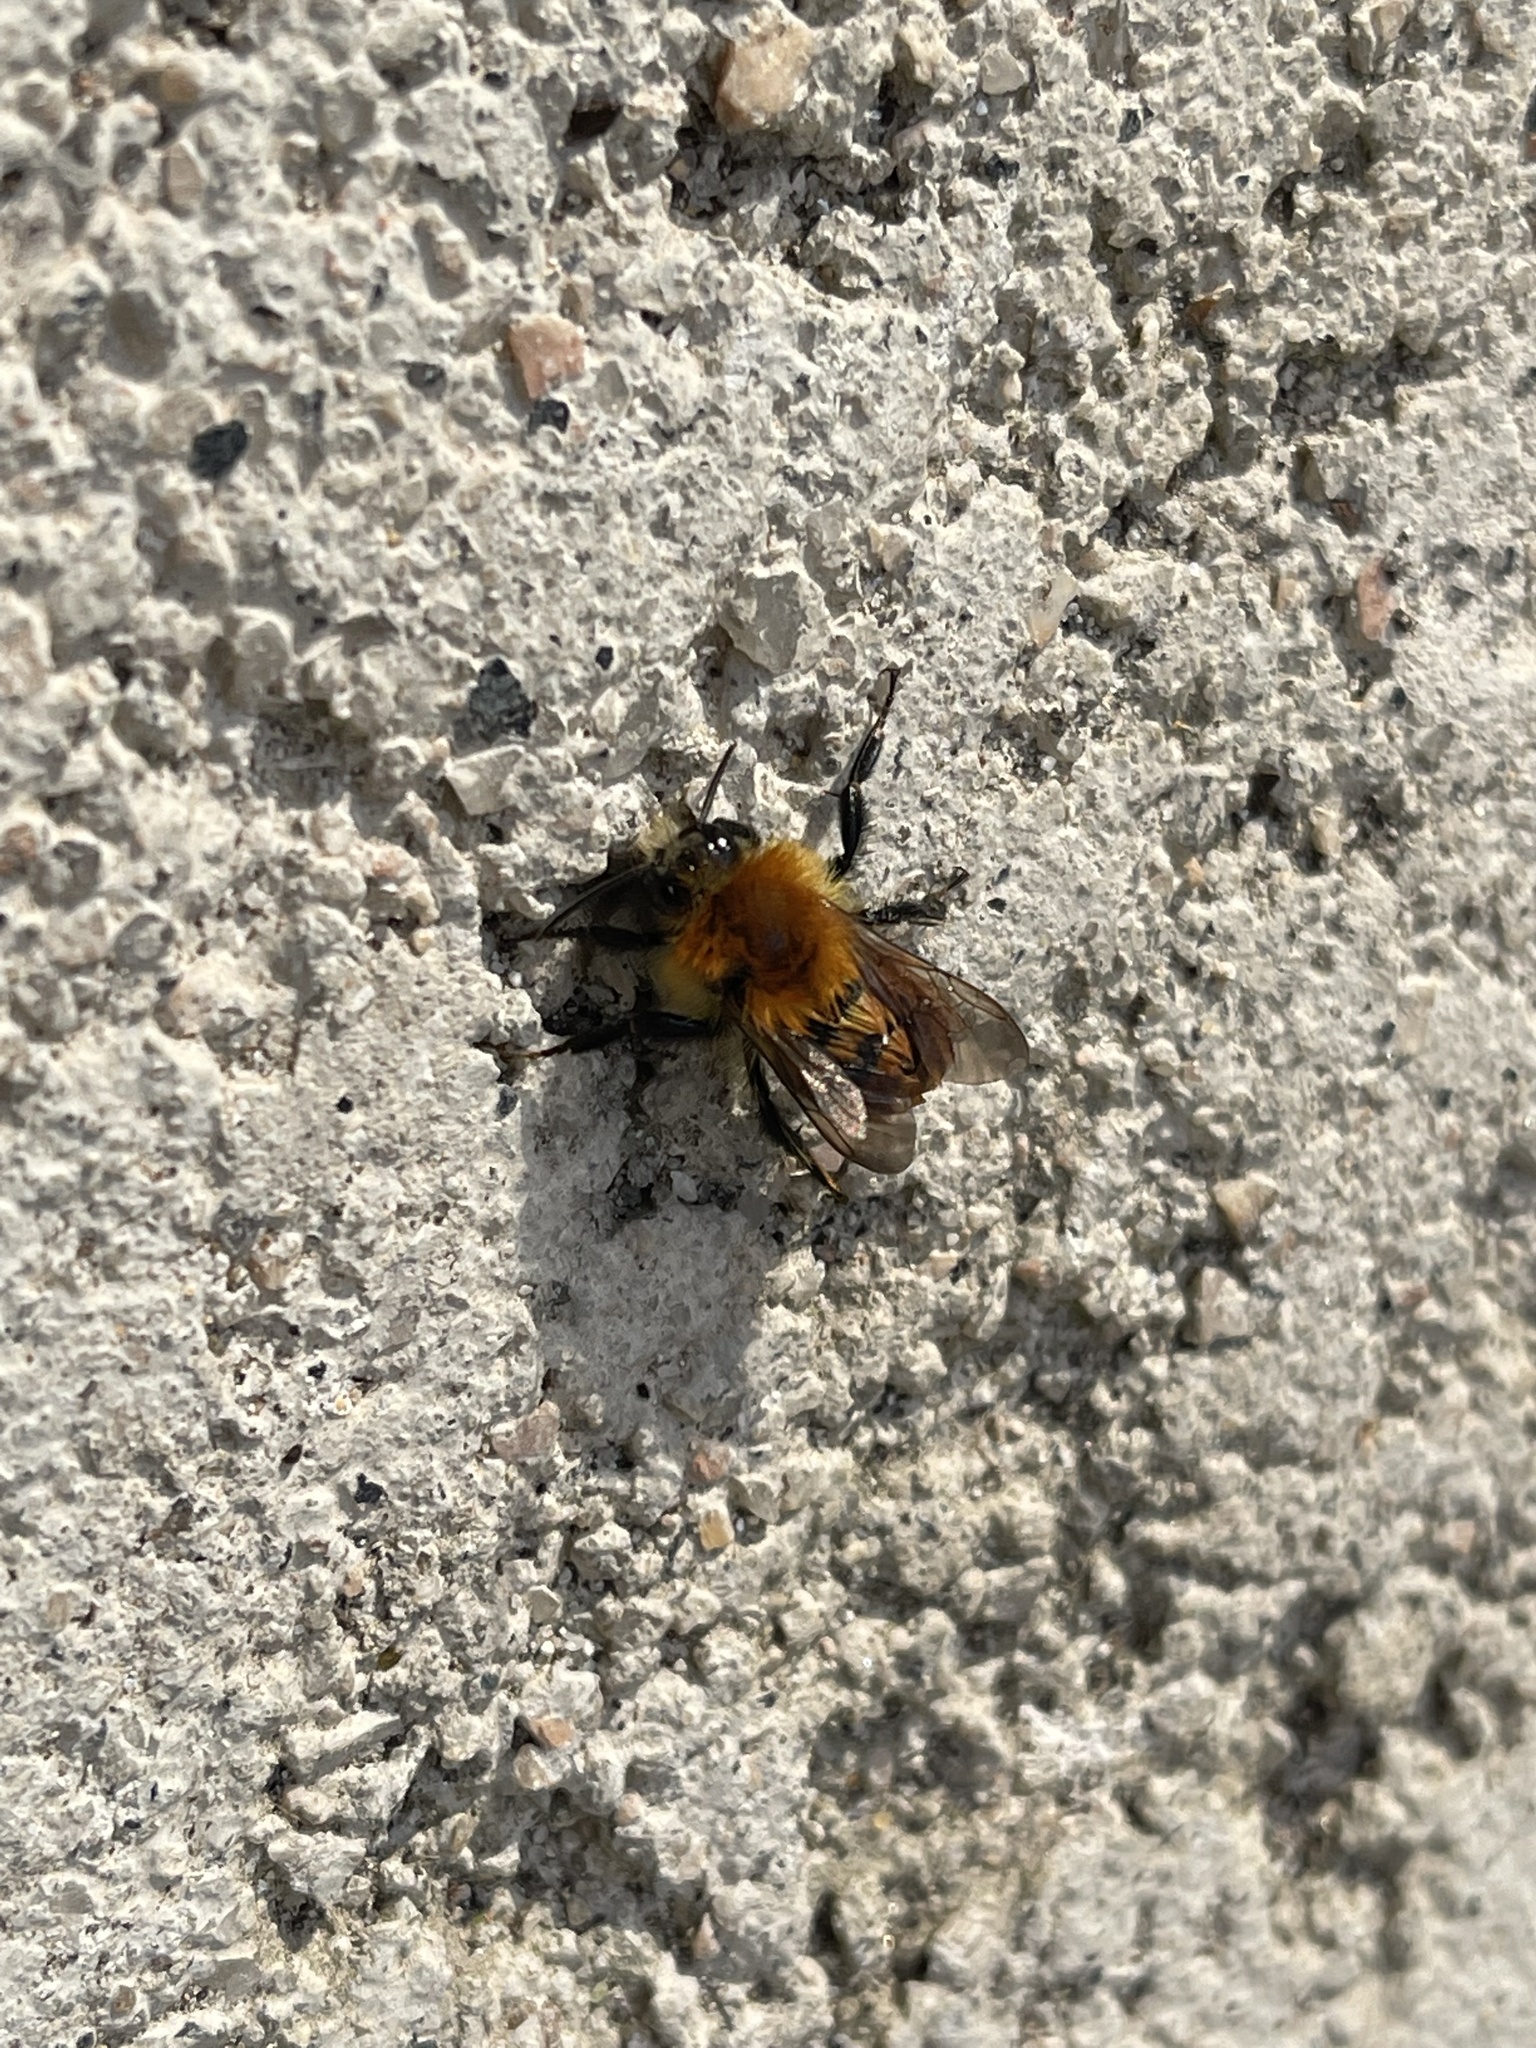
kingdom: Animalia
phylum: Arthropoda
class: Insecta
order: Hymenoptera
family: Apidae
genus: Bombus
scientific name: Bombus pascuorum
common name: Common carder bee
